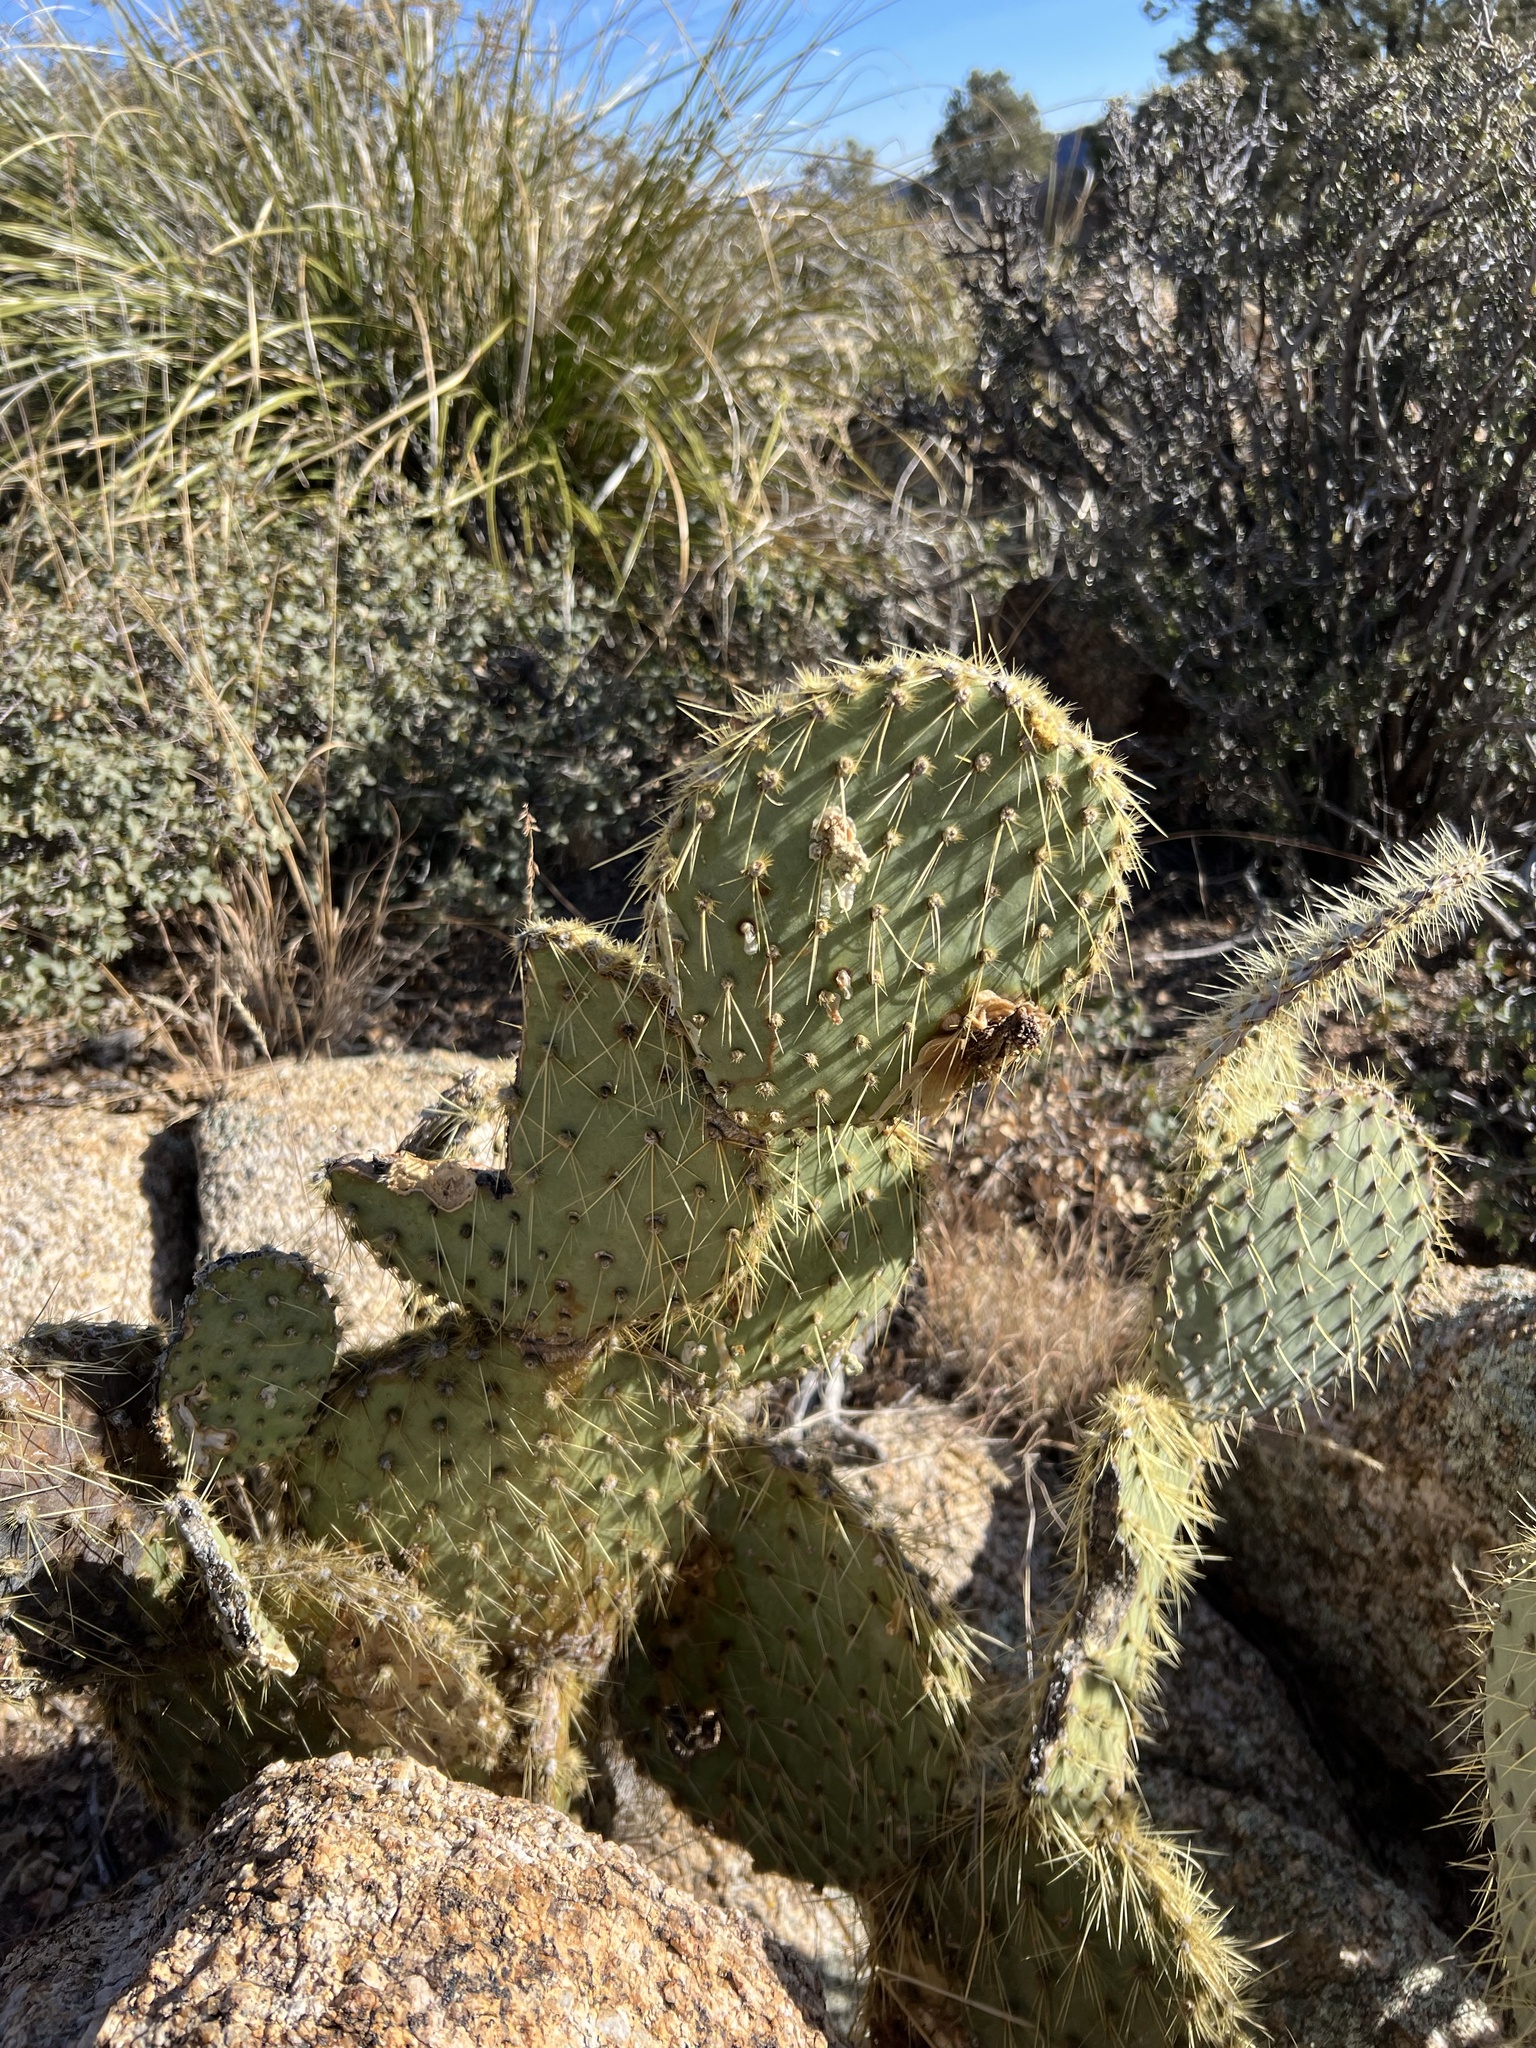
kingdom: Plantae
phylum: Tracheophyta
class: Magnoliopsida
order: Caryophyllales
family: Cactaceae
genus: Opuntia
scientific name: Opuntia chlorotica
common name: Dollar-joint prickly-pear
